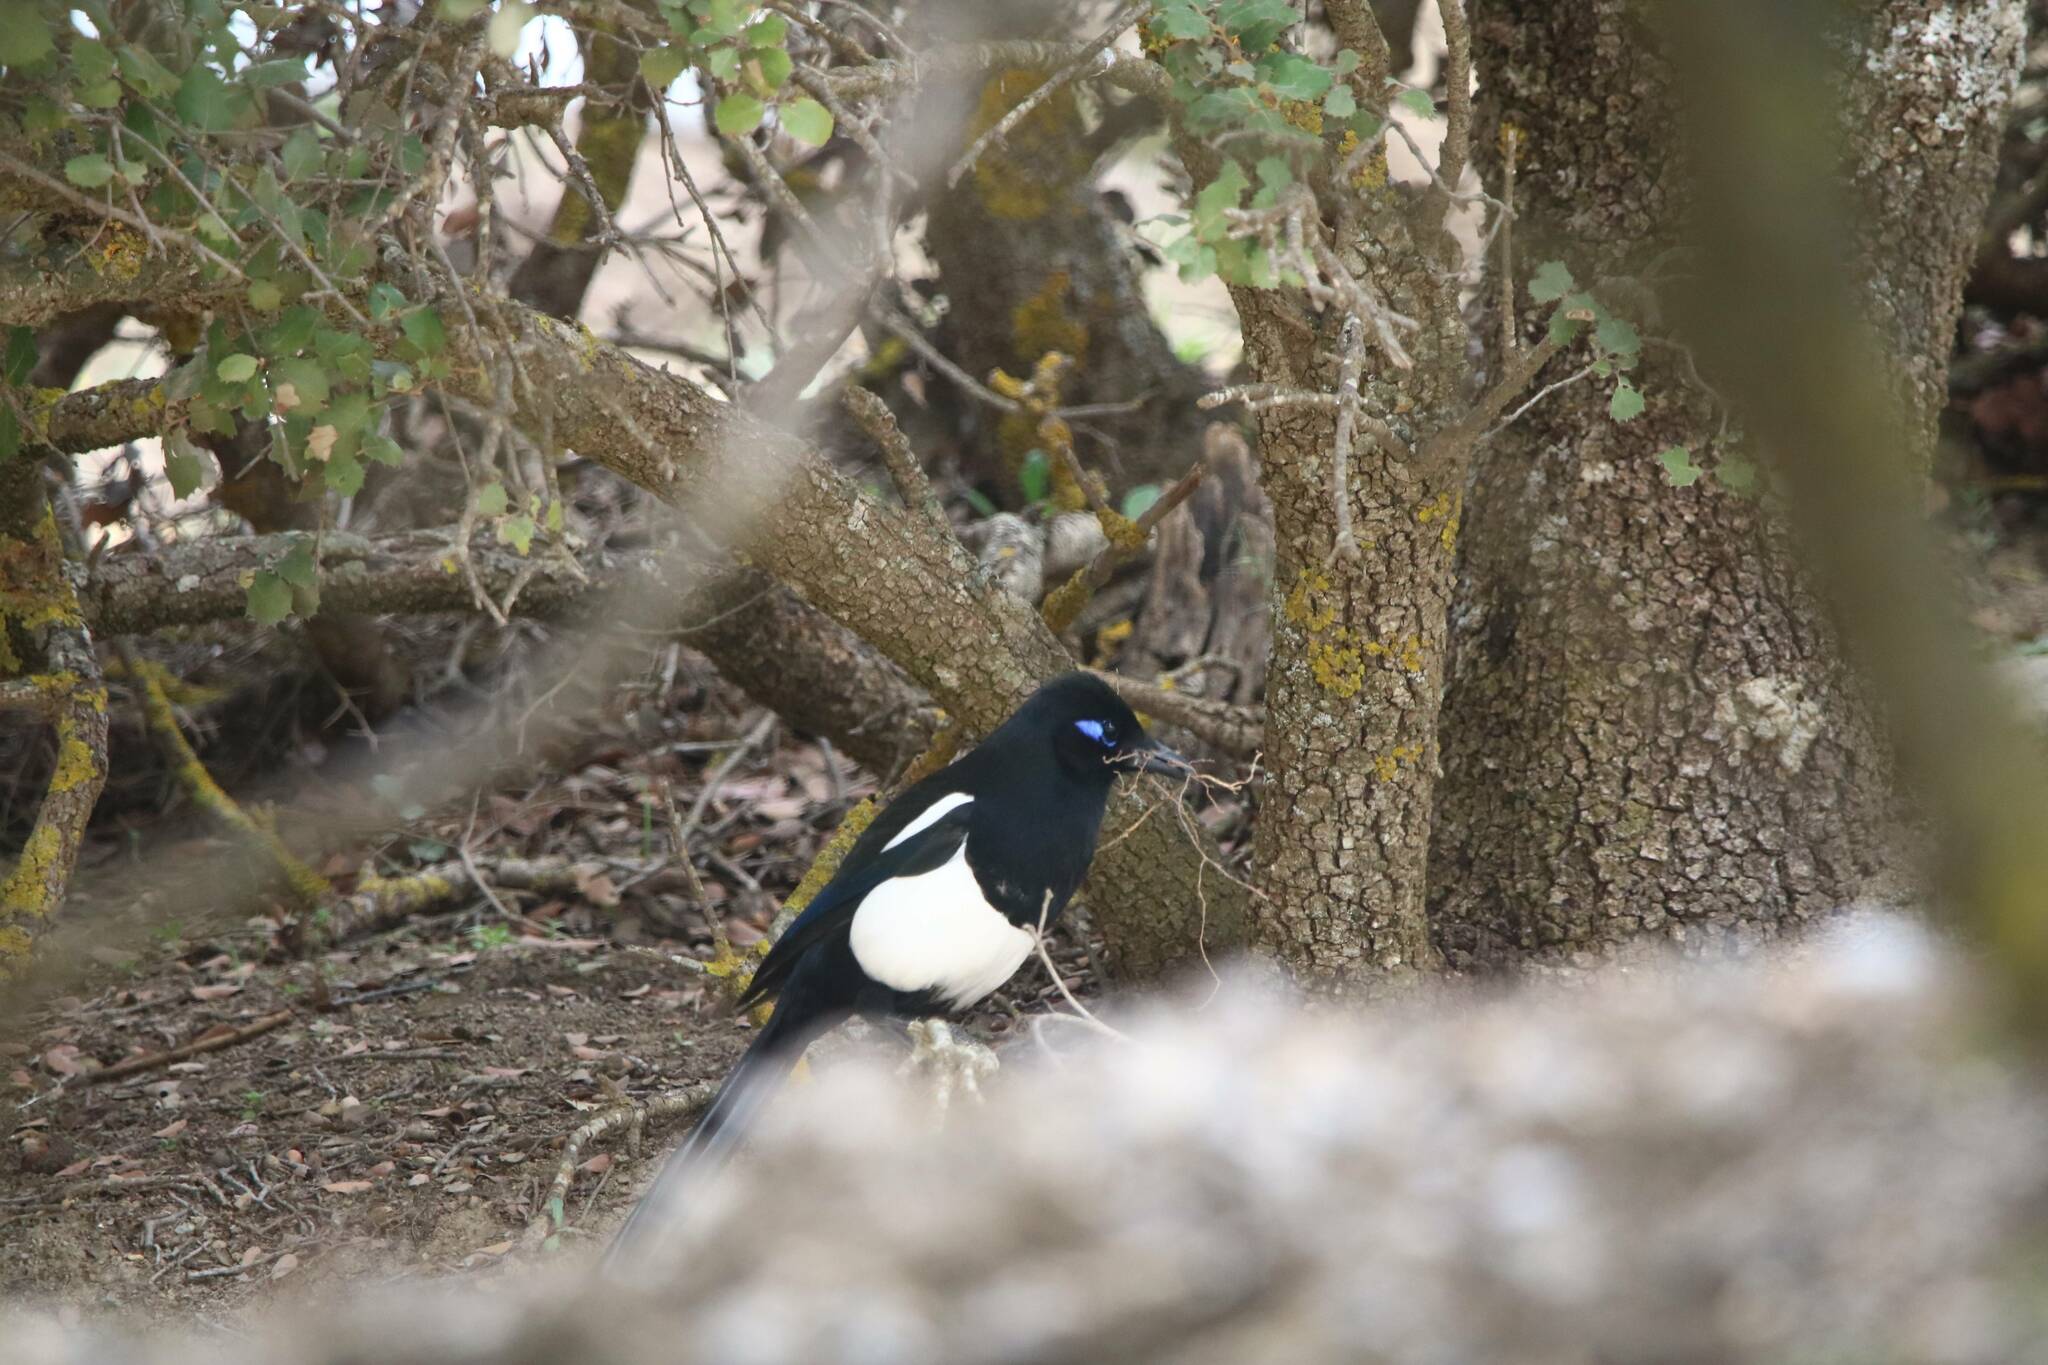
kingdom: Animalia
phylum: Chordata
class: Aves
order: Passeriformes
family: Corvidae
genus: Pica
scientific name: Pica mauritanica
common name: Maghreb magpie
